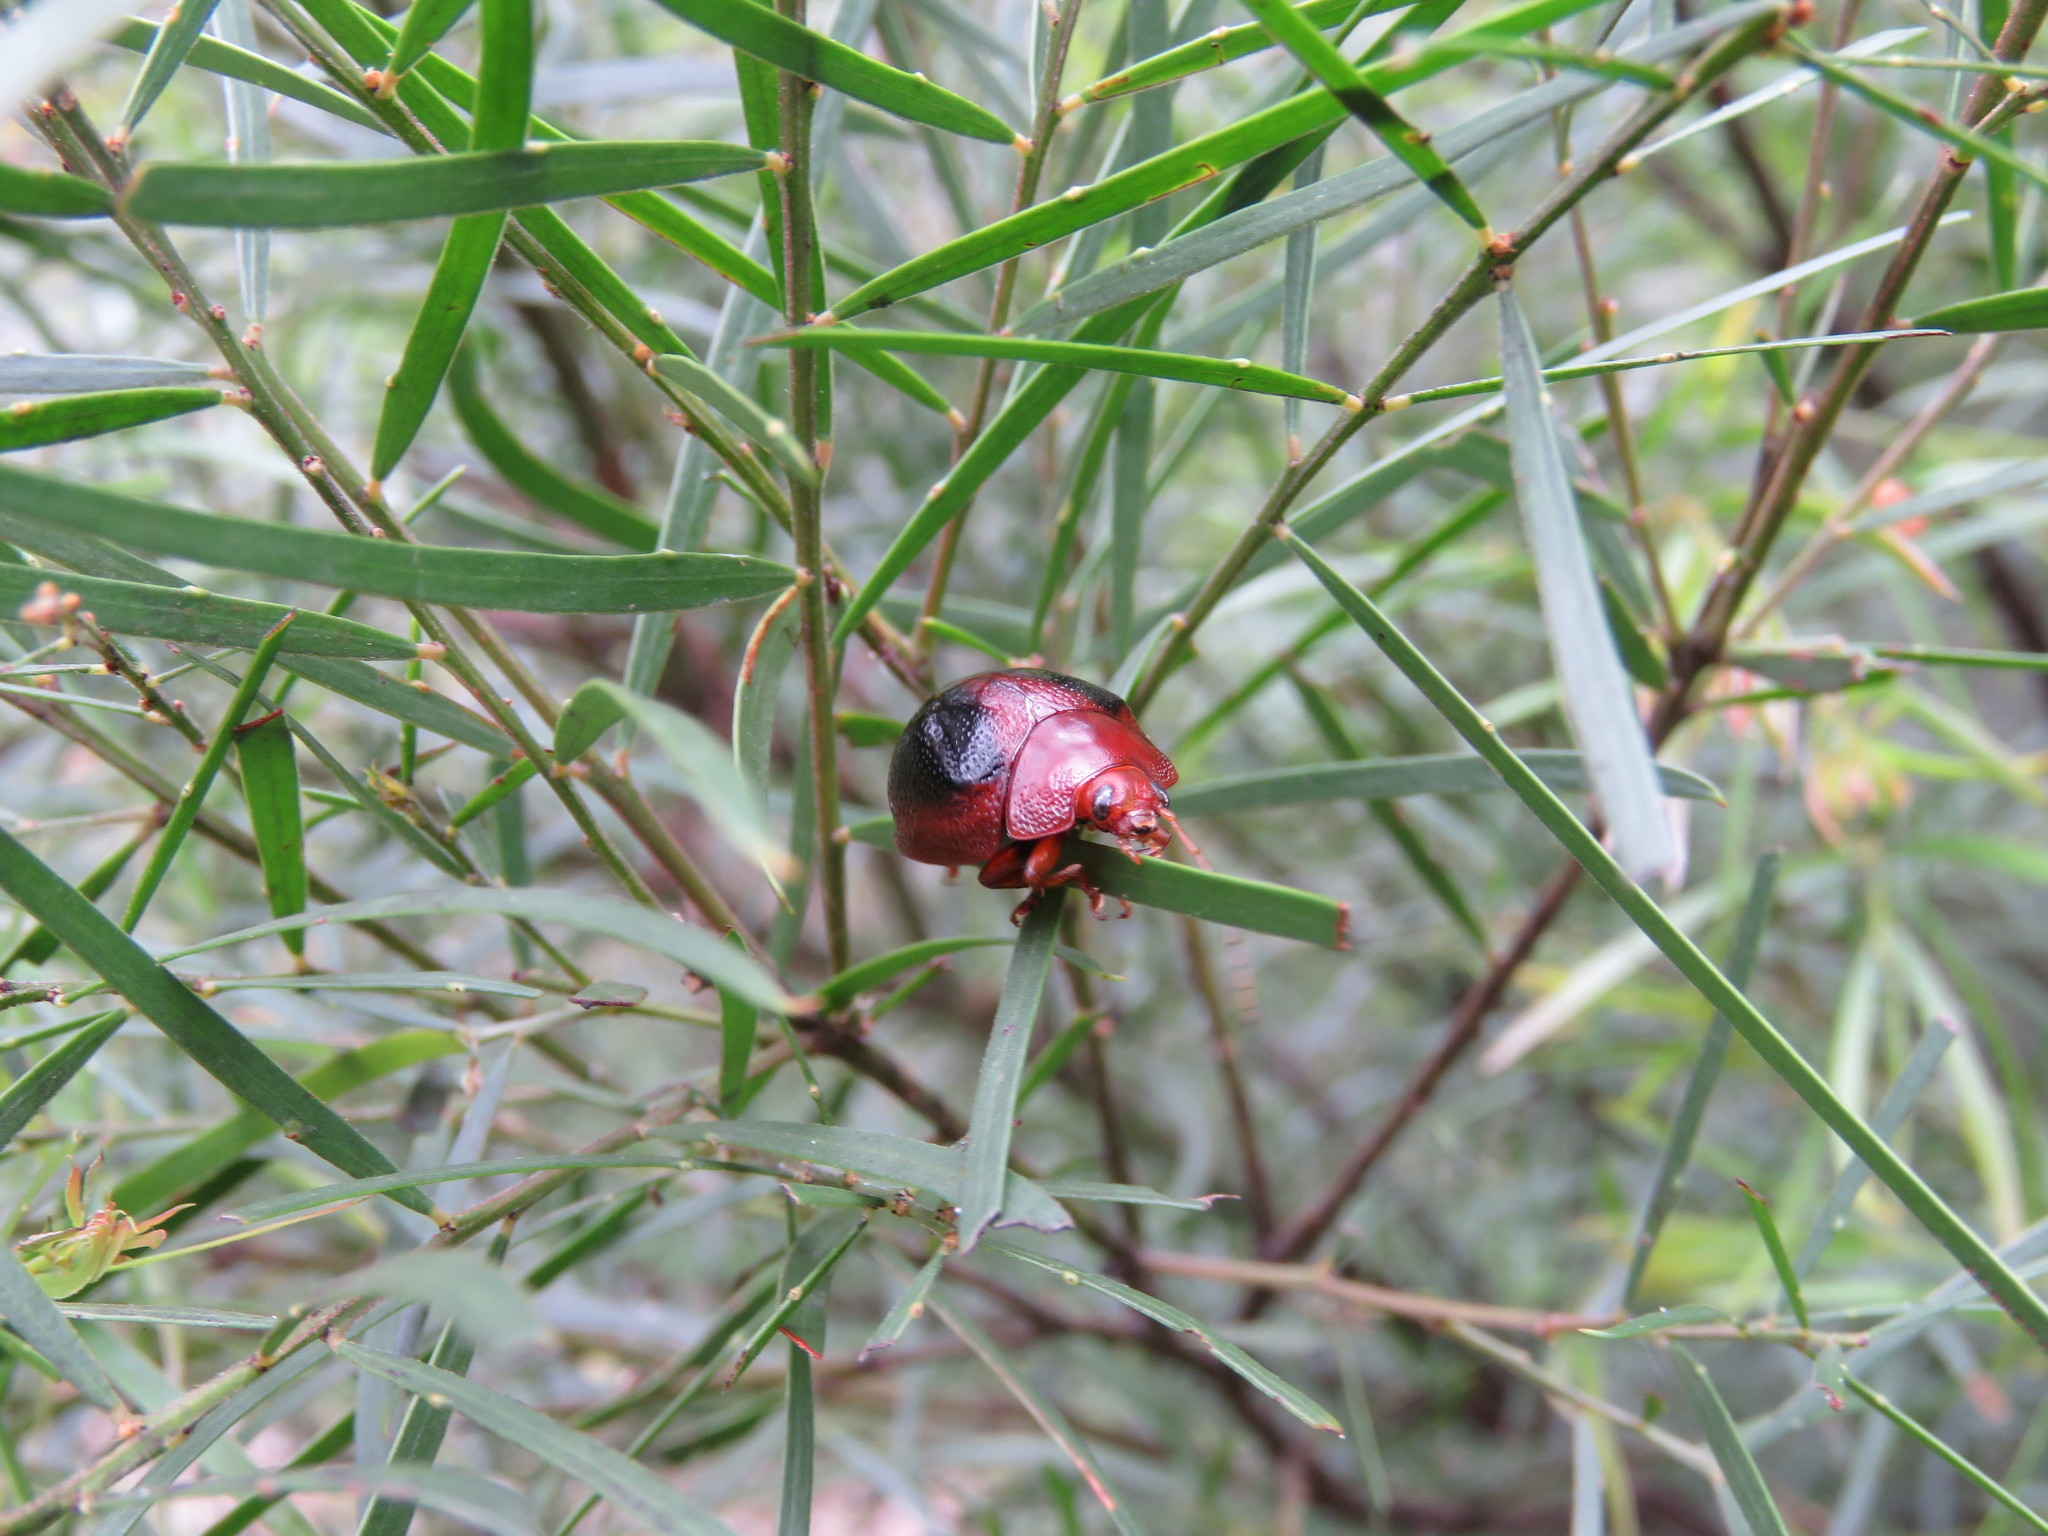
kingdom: Animalia
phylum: Arthropoda
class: Insecta
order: Coleoptera
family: Chrysomelidae
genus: Dicranosterna
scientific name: Dicranosterna
